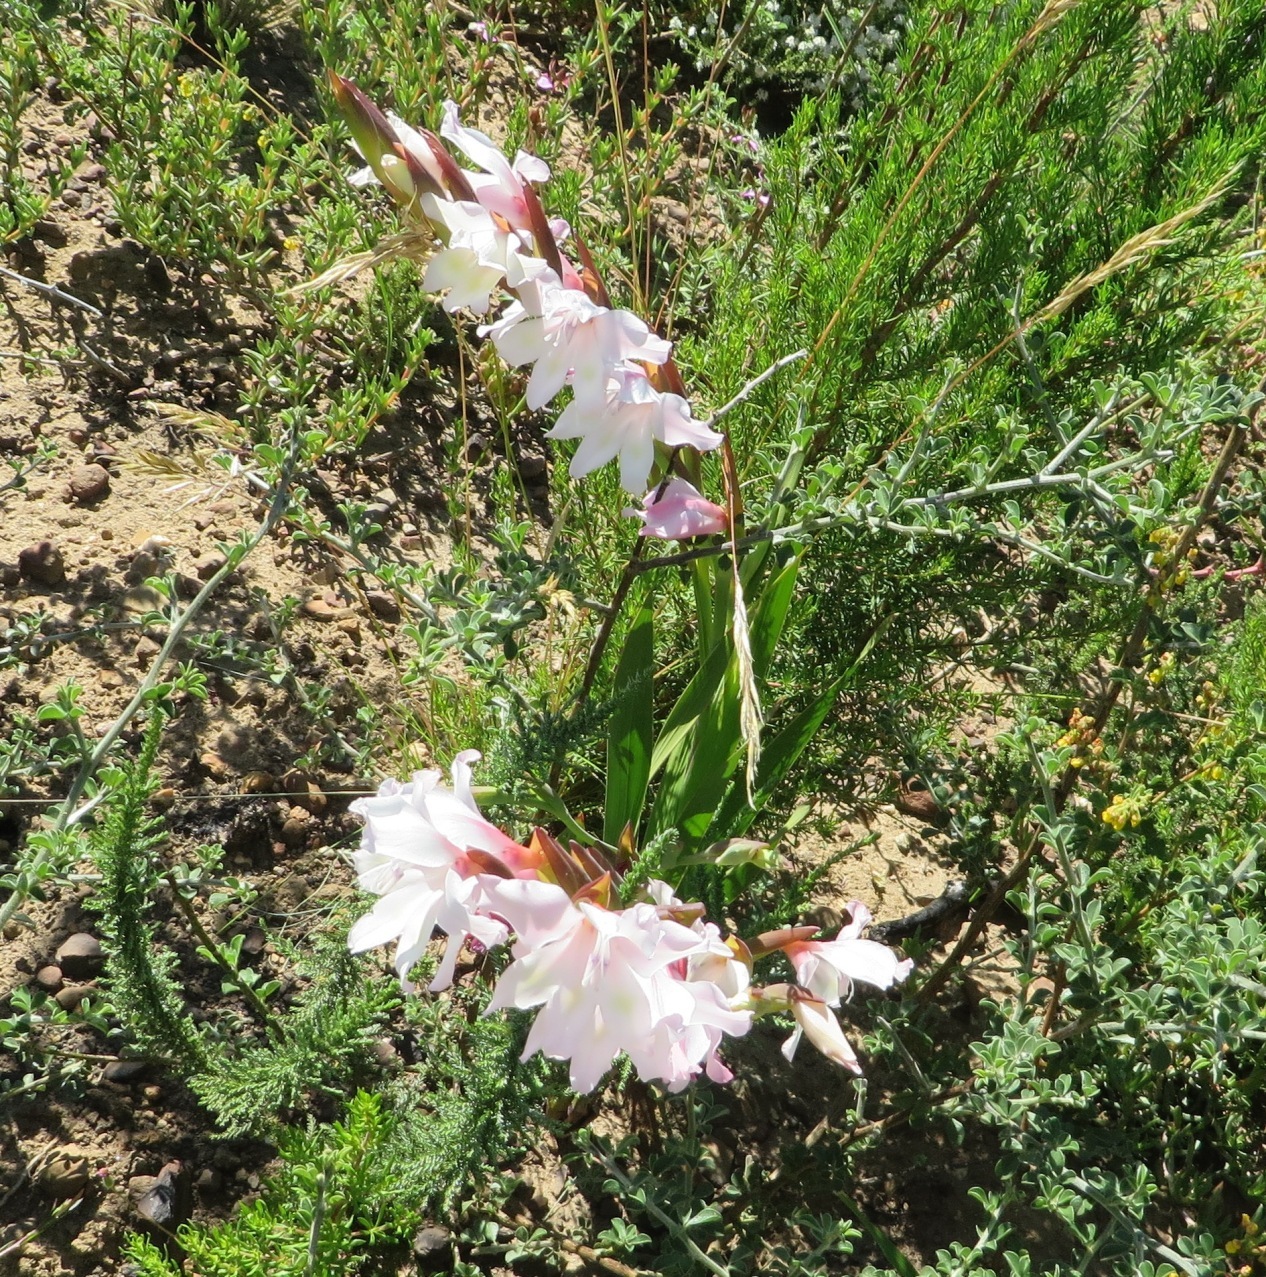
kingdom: Plantae
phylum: Tracheophyta
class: Liliopsida
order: Asparagales
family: Iridaceae
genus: Gladiolus
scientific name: Gladiolus carneus
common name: Painted-lady
